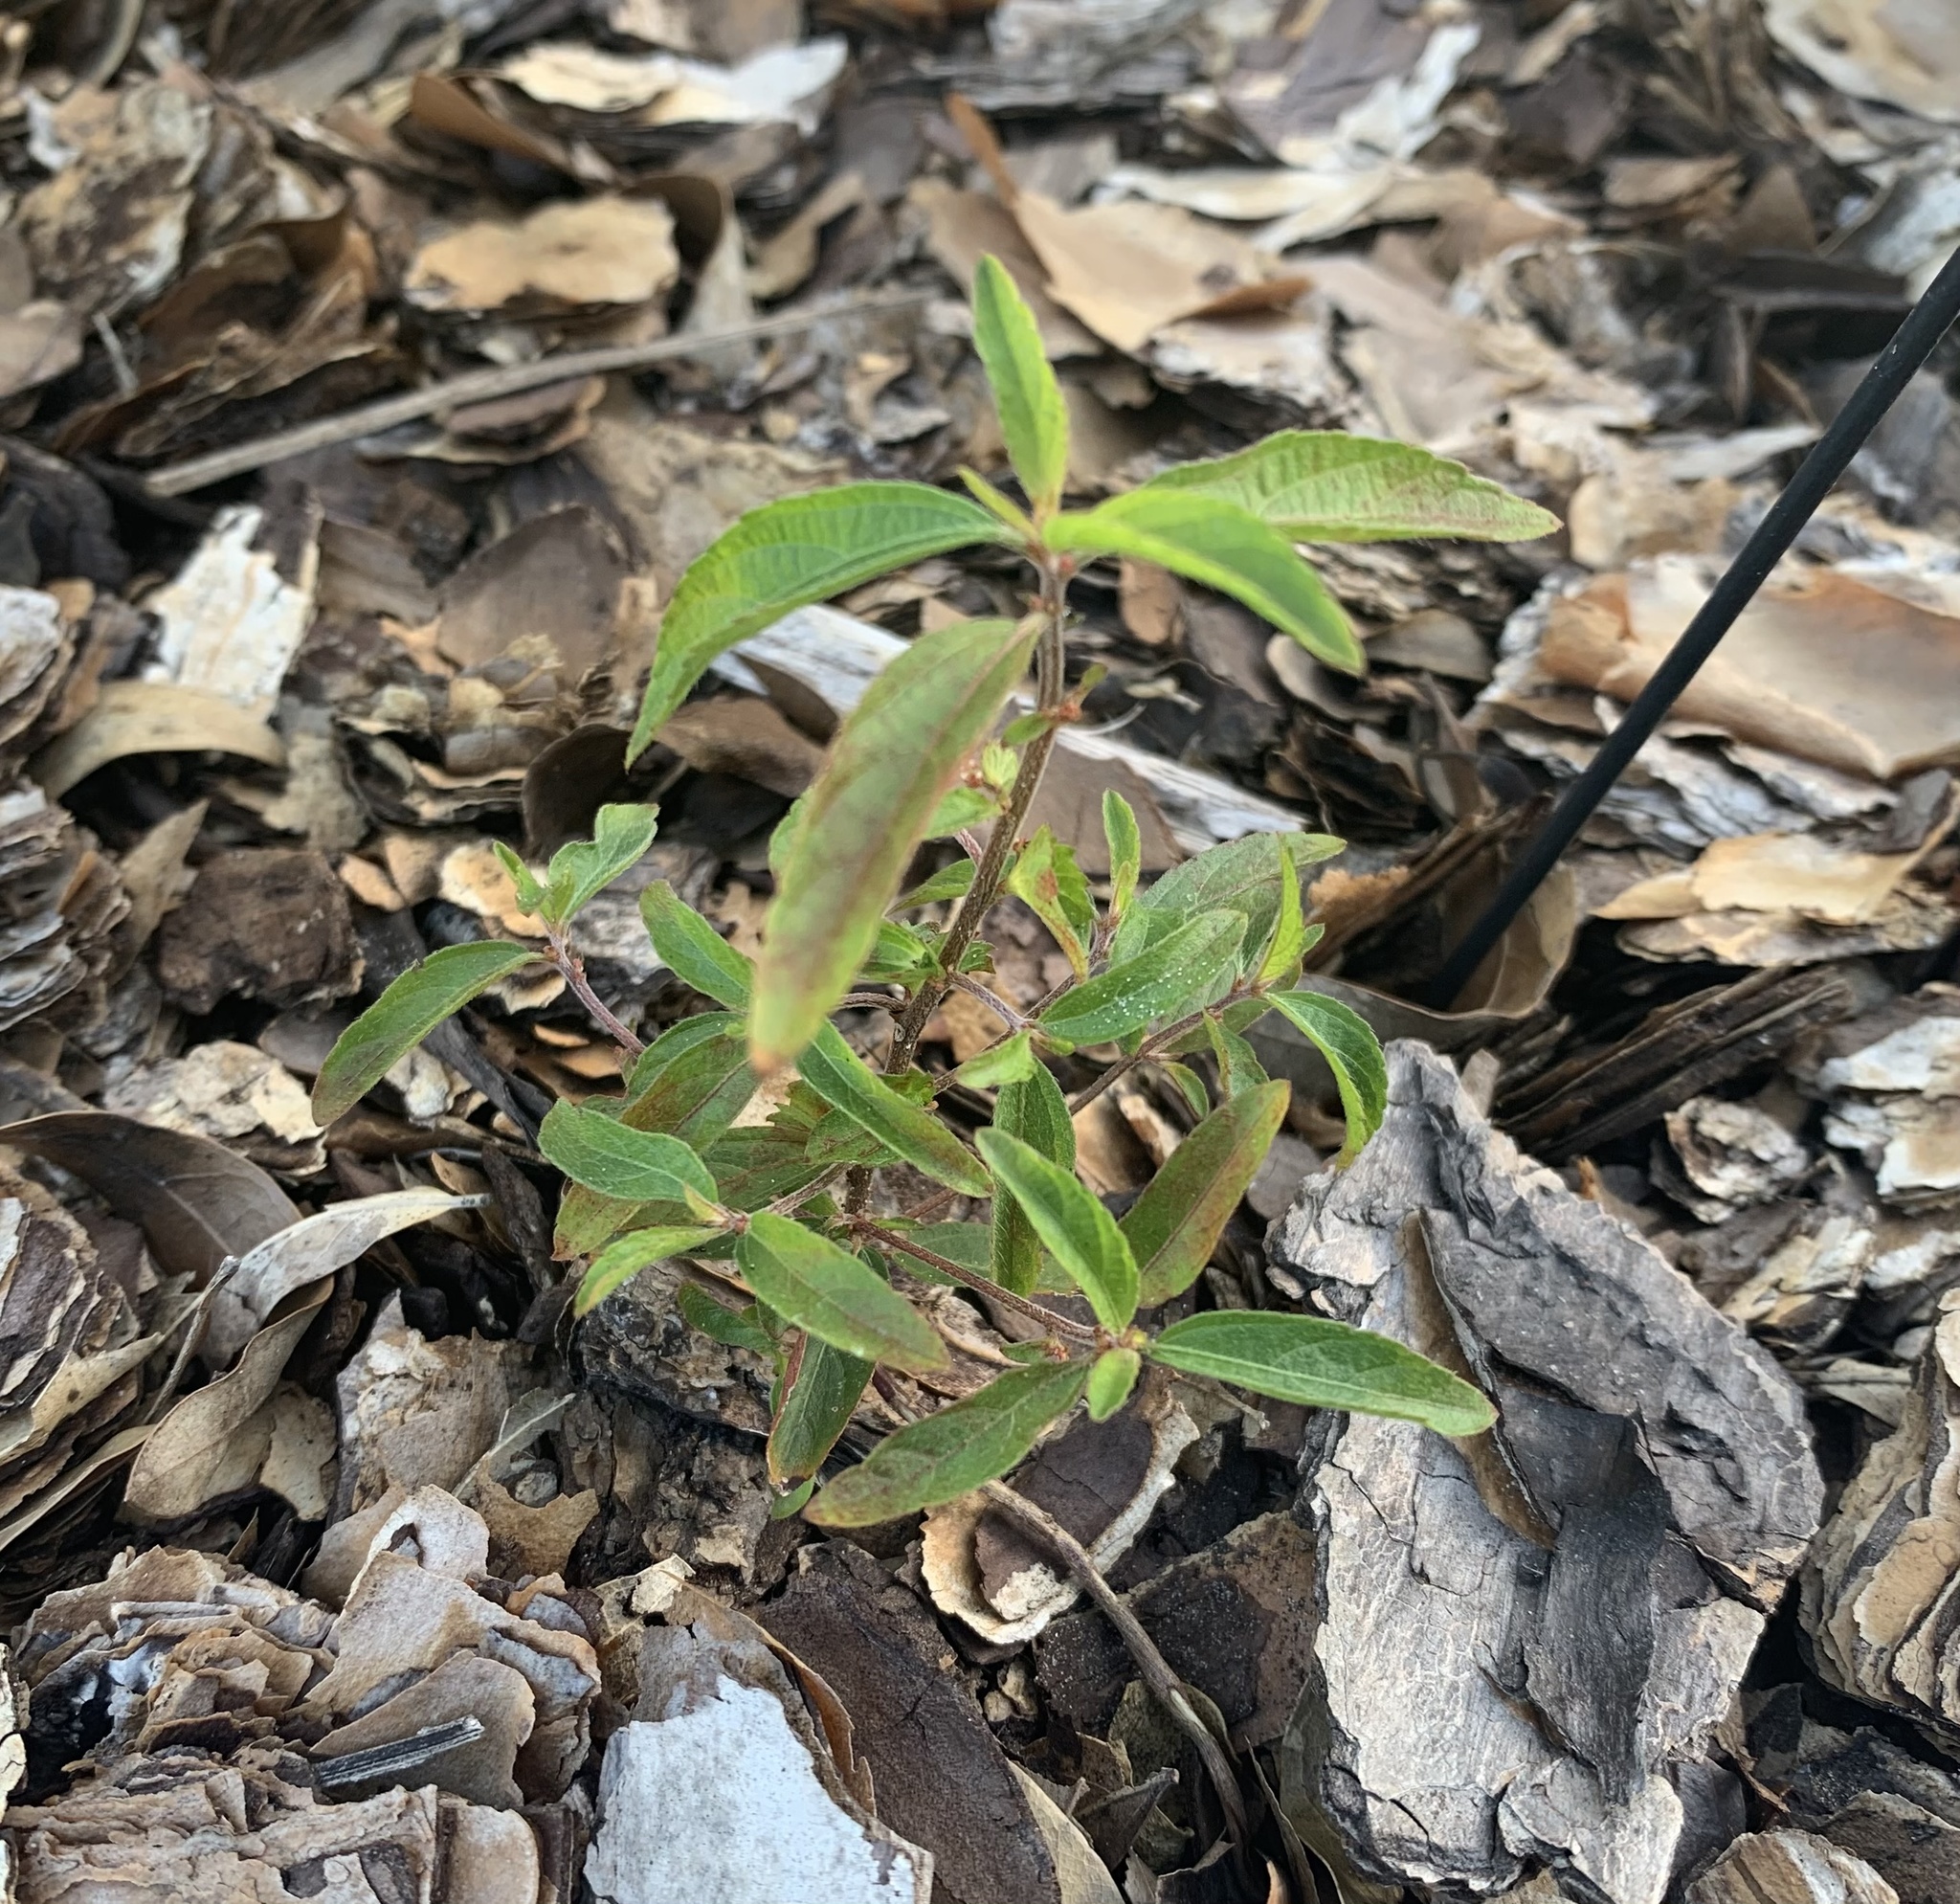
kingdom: Plantae
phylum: Tracheophyta
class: Magnoliopsida
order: Malpighiales
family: Euphorbiaceae
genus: Acalypha
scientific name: Acalypha gracilens
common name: Slender three-seeded mercury
